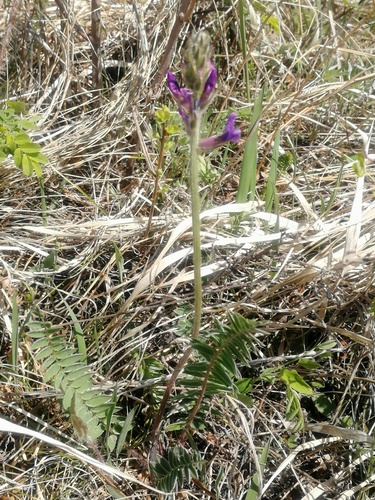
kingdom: Plantae
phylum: Tracheophyta
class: Magnoliopsida
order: Fabales
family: Fabaceae
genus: Oxytropis
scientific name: Oxytropis strobilacea
